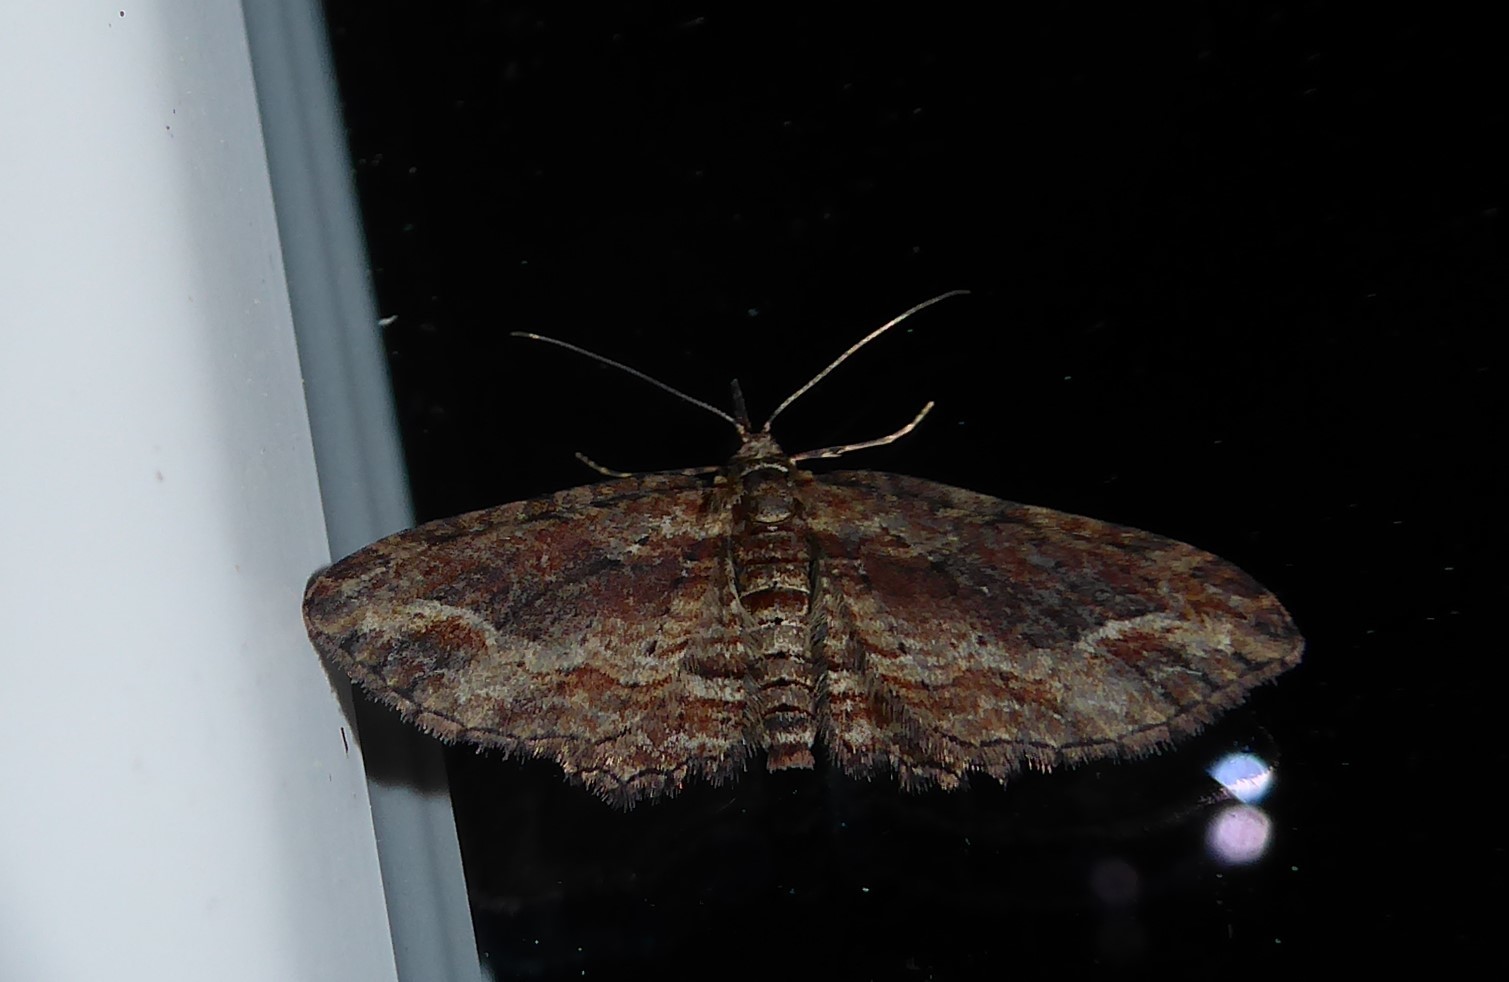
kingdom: Animalia
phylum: Arthropoda
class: Insecta
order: Lepidoptera
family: Geometridae
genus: Chloroclystis
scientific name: Chloroclystis filata
